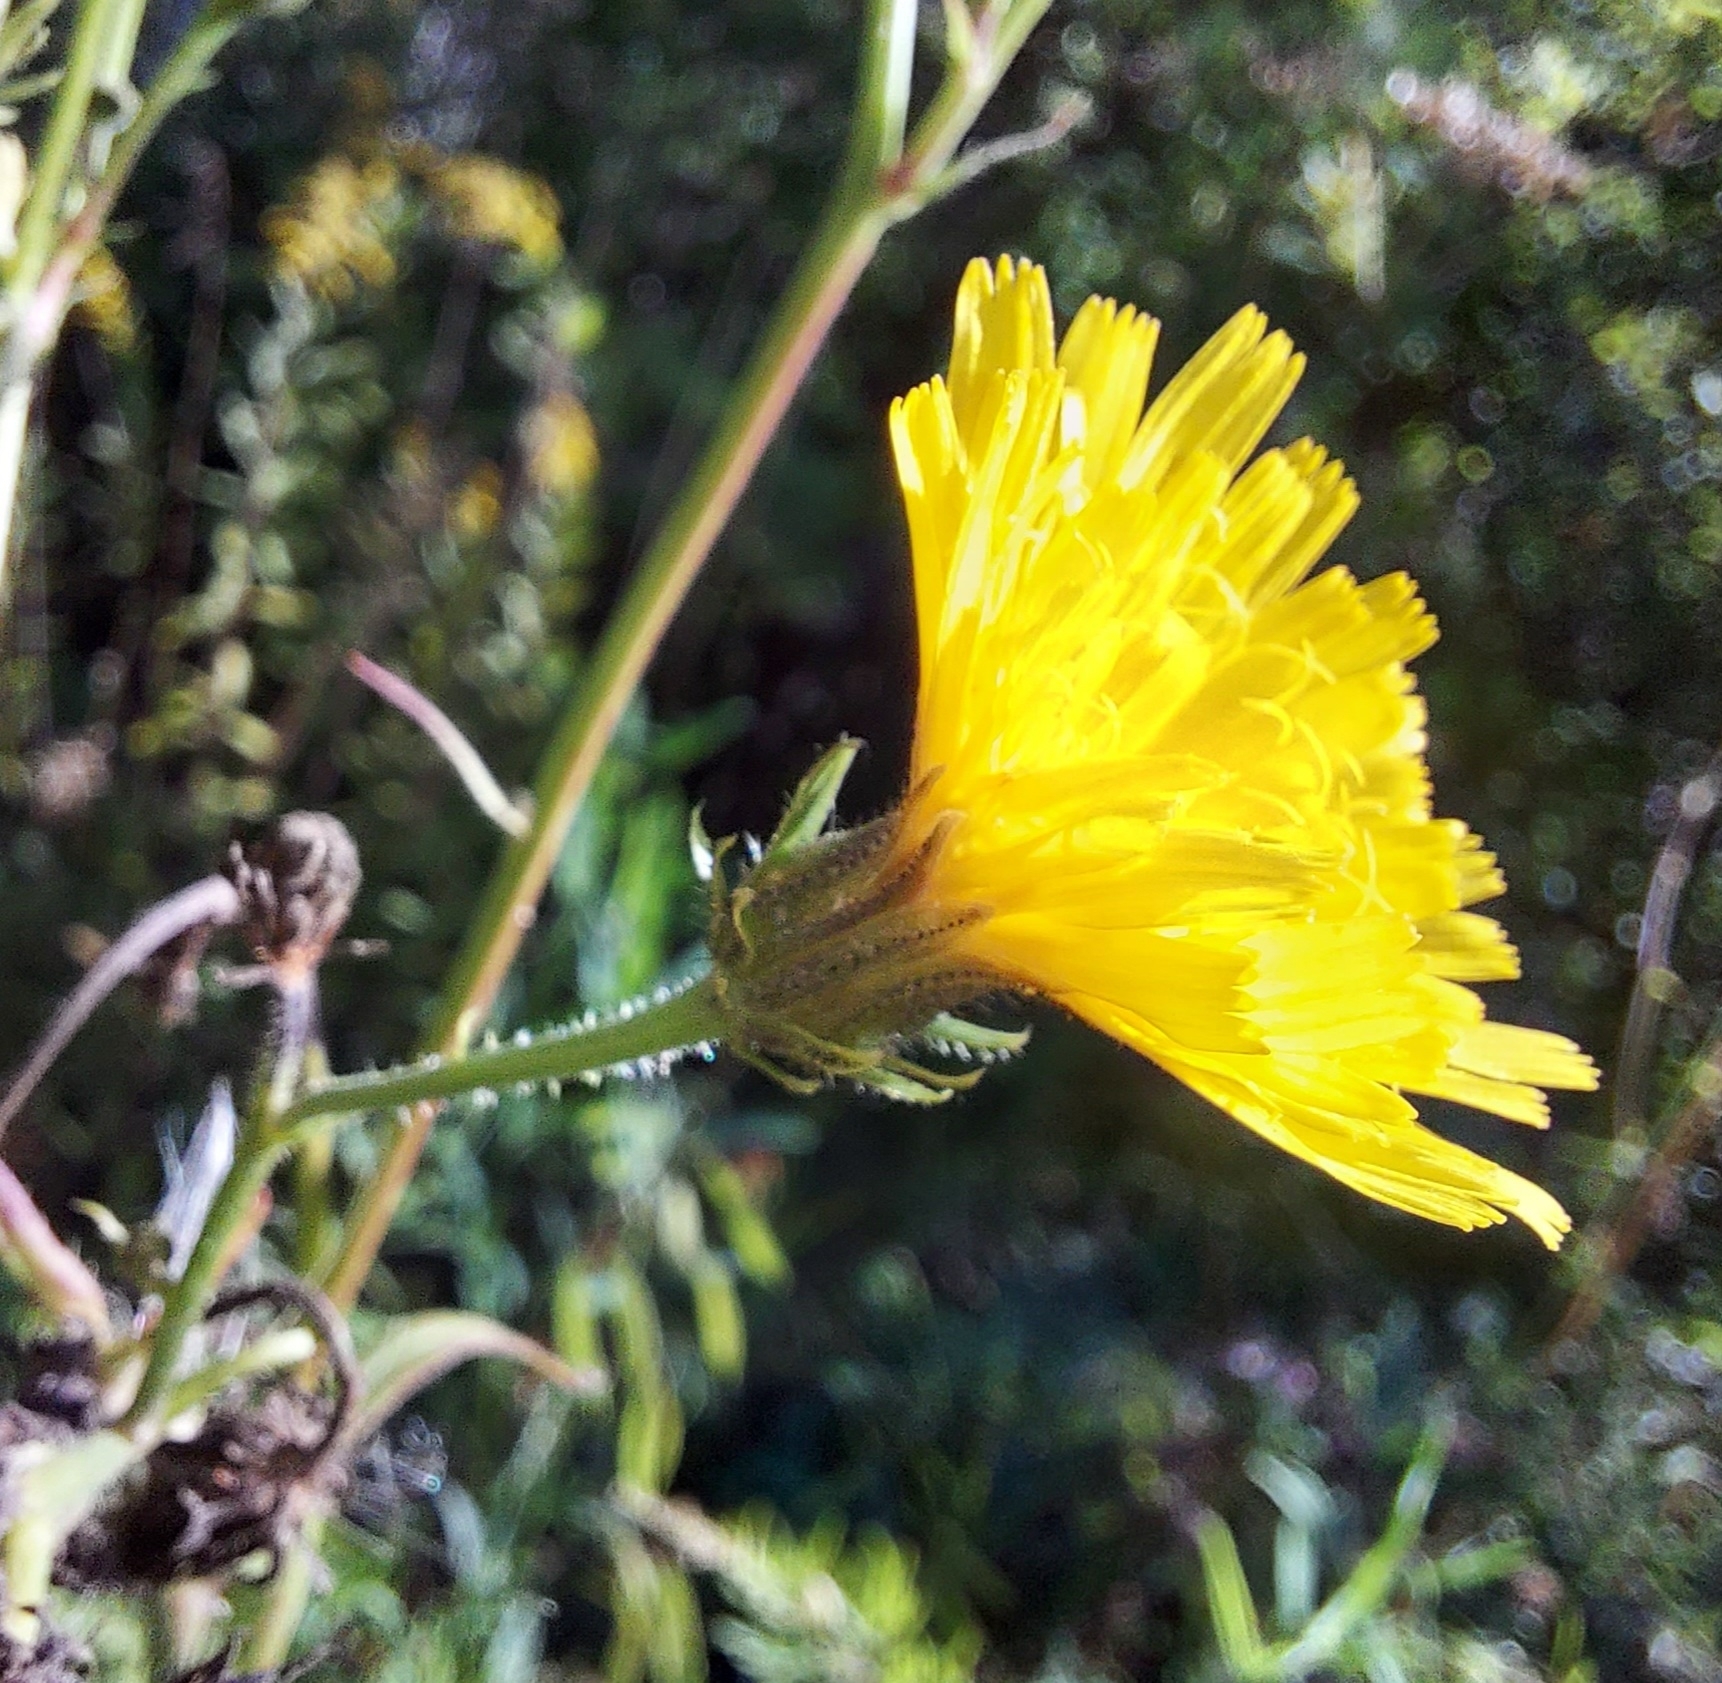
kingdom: Plantae
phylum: Tracheophyta
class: Magnoliopsida
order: Asterales
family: Asteraceae
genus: Picris
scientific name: Picris hieracioides
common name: Hawkweed oxtongue
